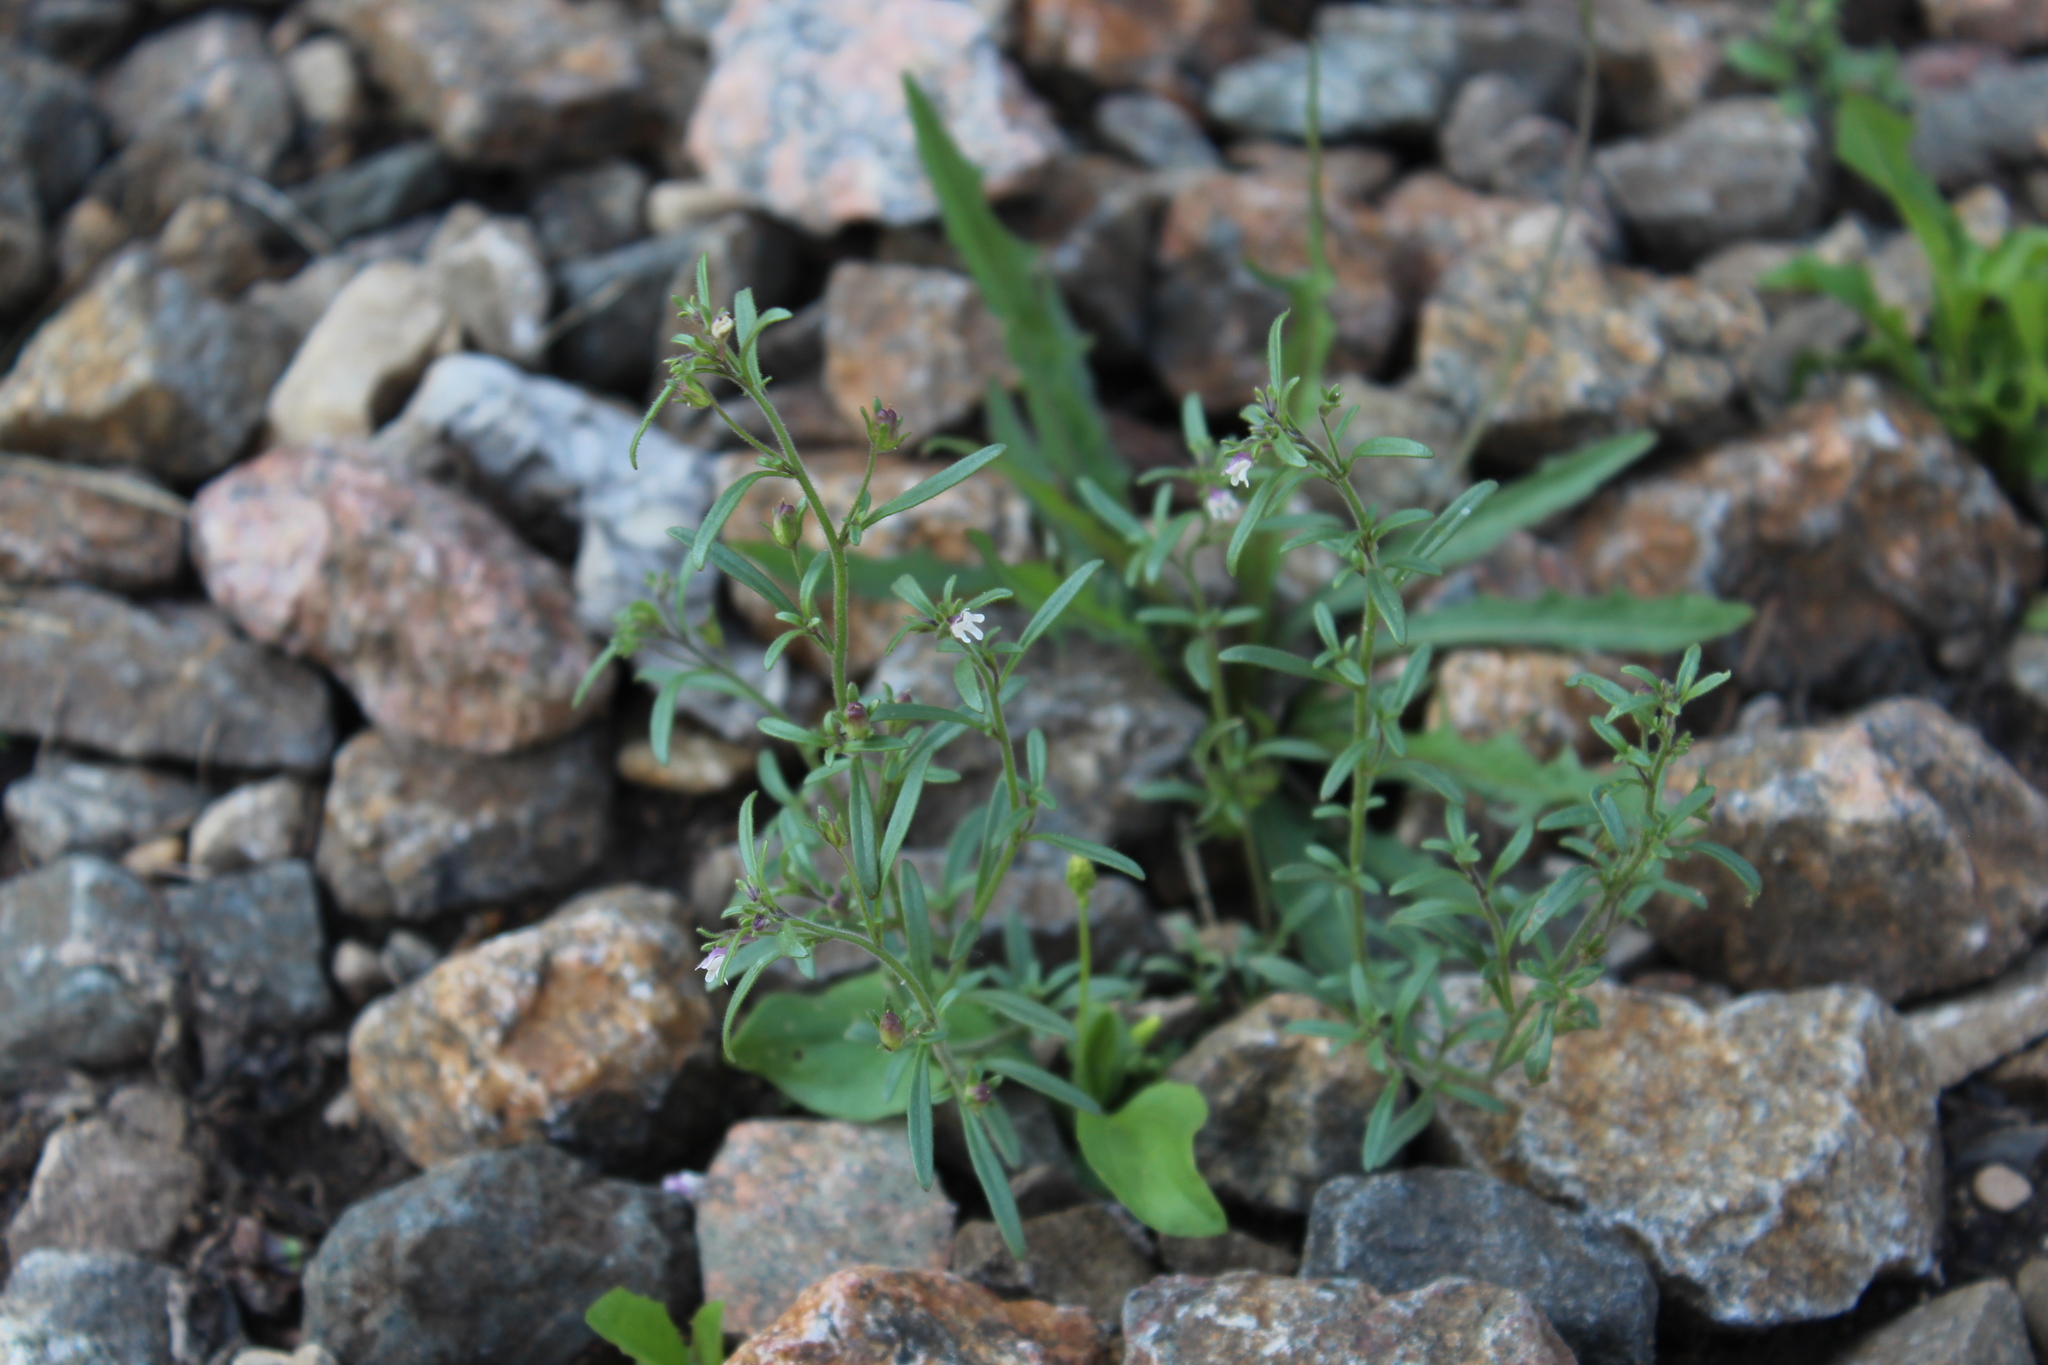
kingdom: Plantae
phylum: Tracheophyta
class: Magnoliopsida
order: Lamiales
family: Plantaginaceae
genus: Chaenorhinum
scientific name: Chaenorhinum minus
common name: Dwarf snapdragon
